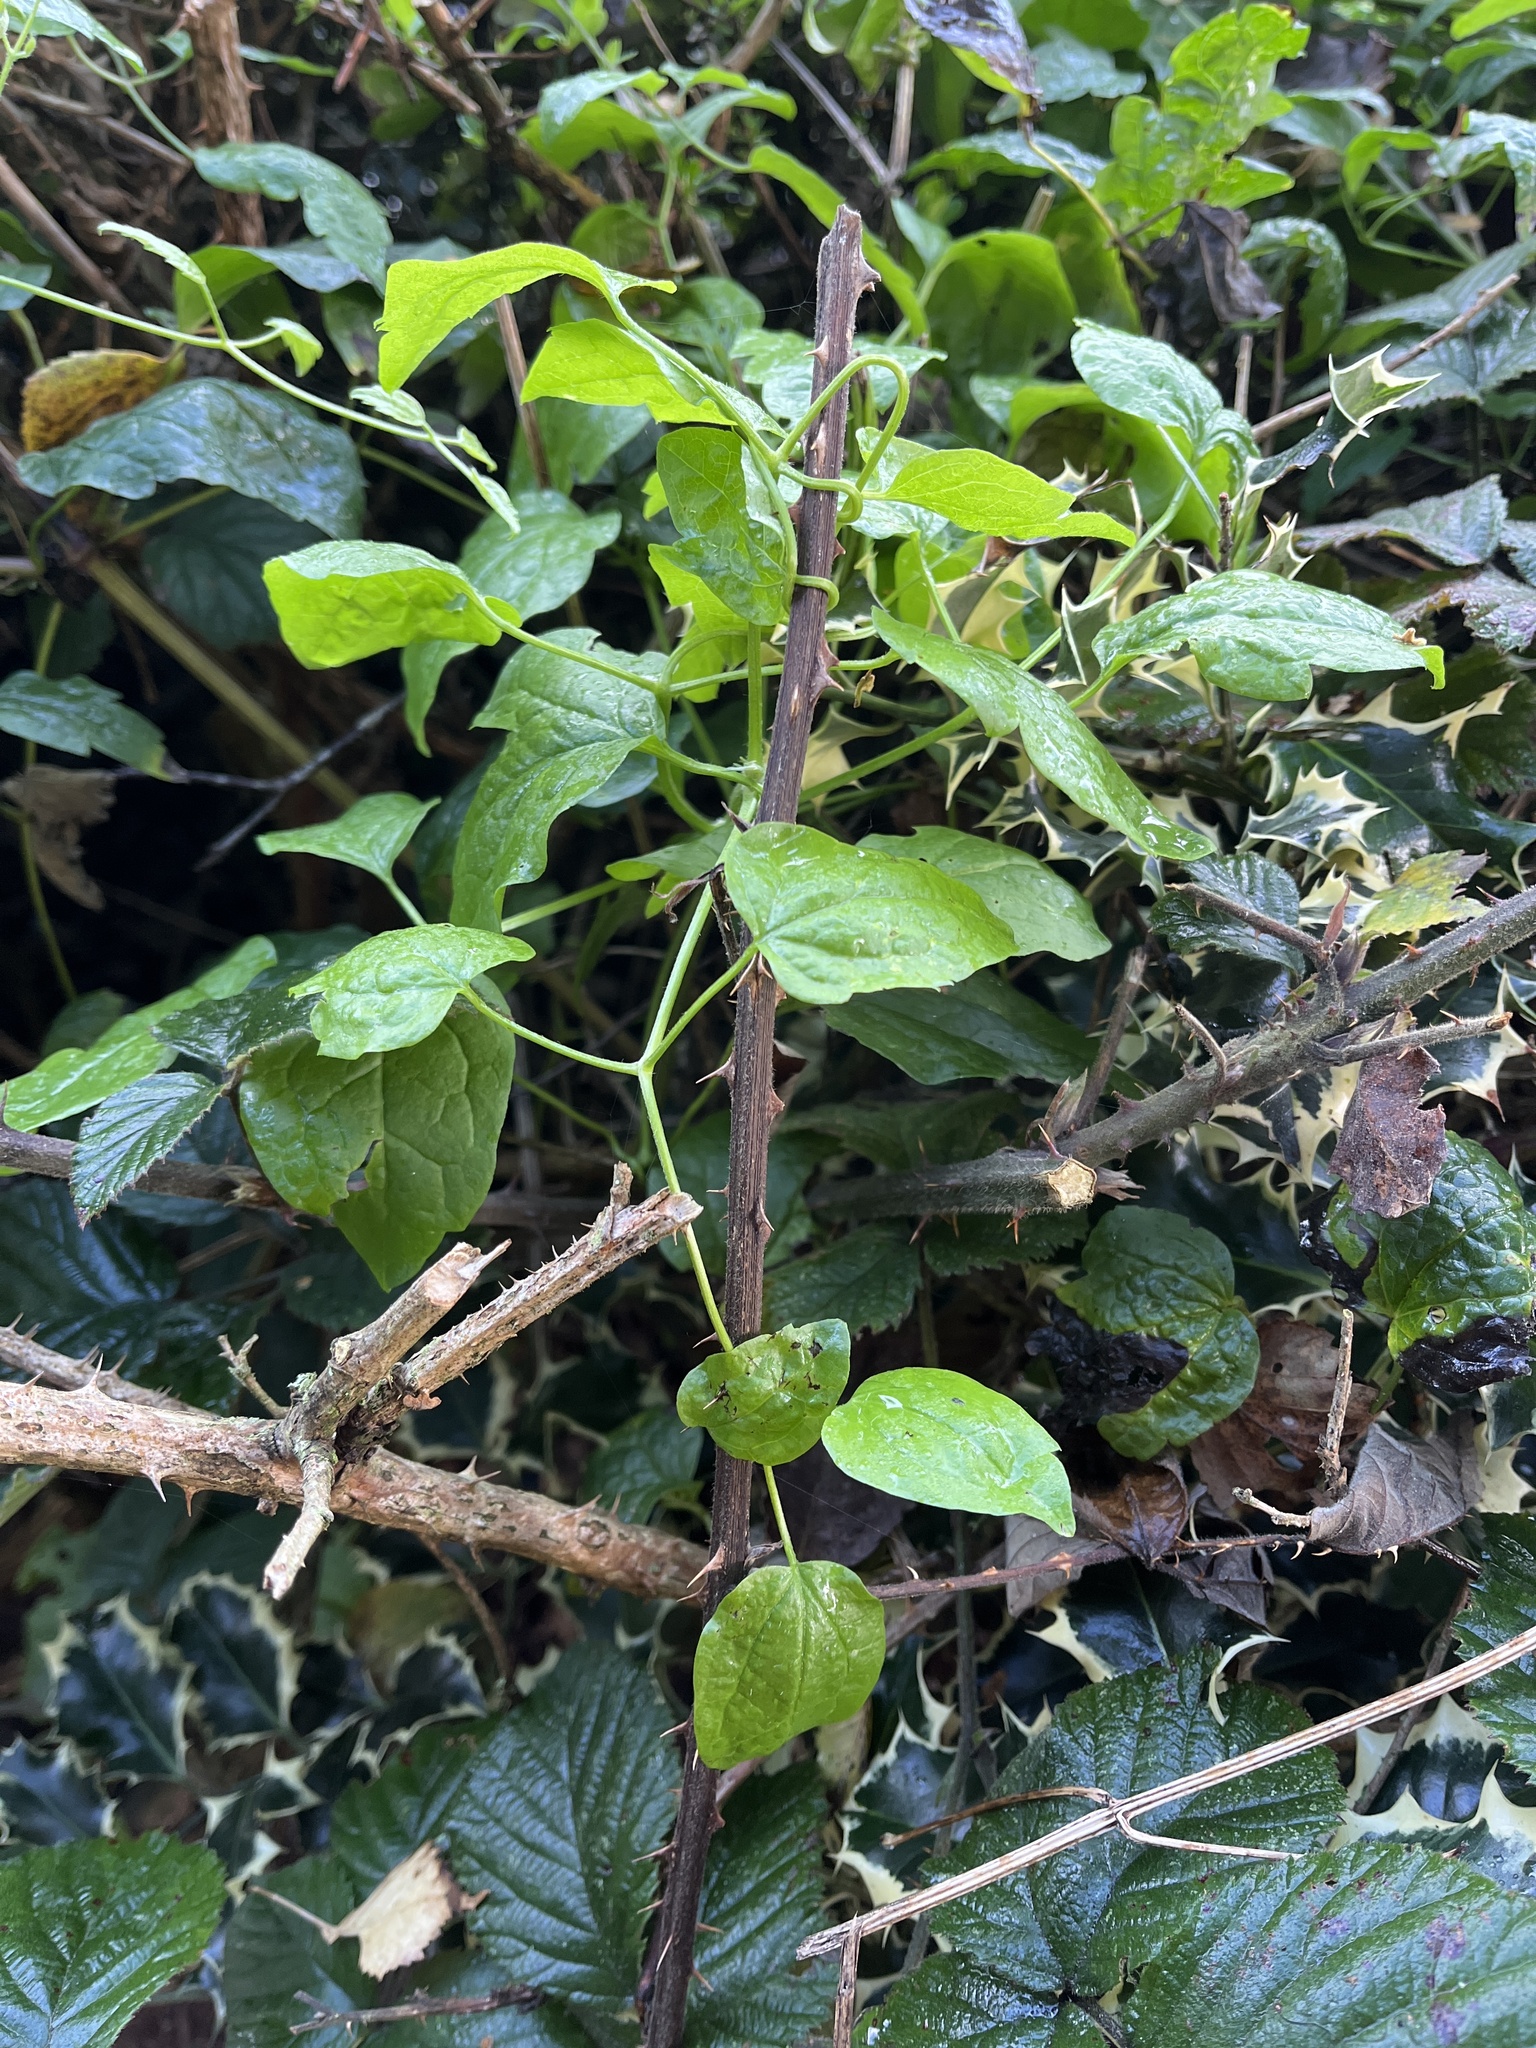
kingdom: Plantae
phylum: Tracheophyta
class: Magnoliopsida
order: Ranunculales
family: Ranunculaceae
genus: Clematis
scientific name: Clematis vitalba
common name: Evergreen clematis
